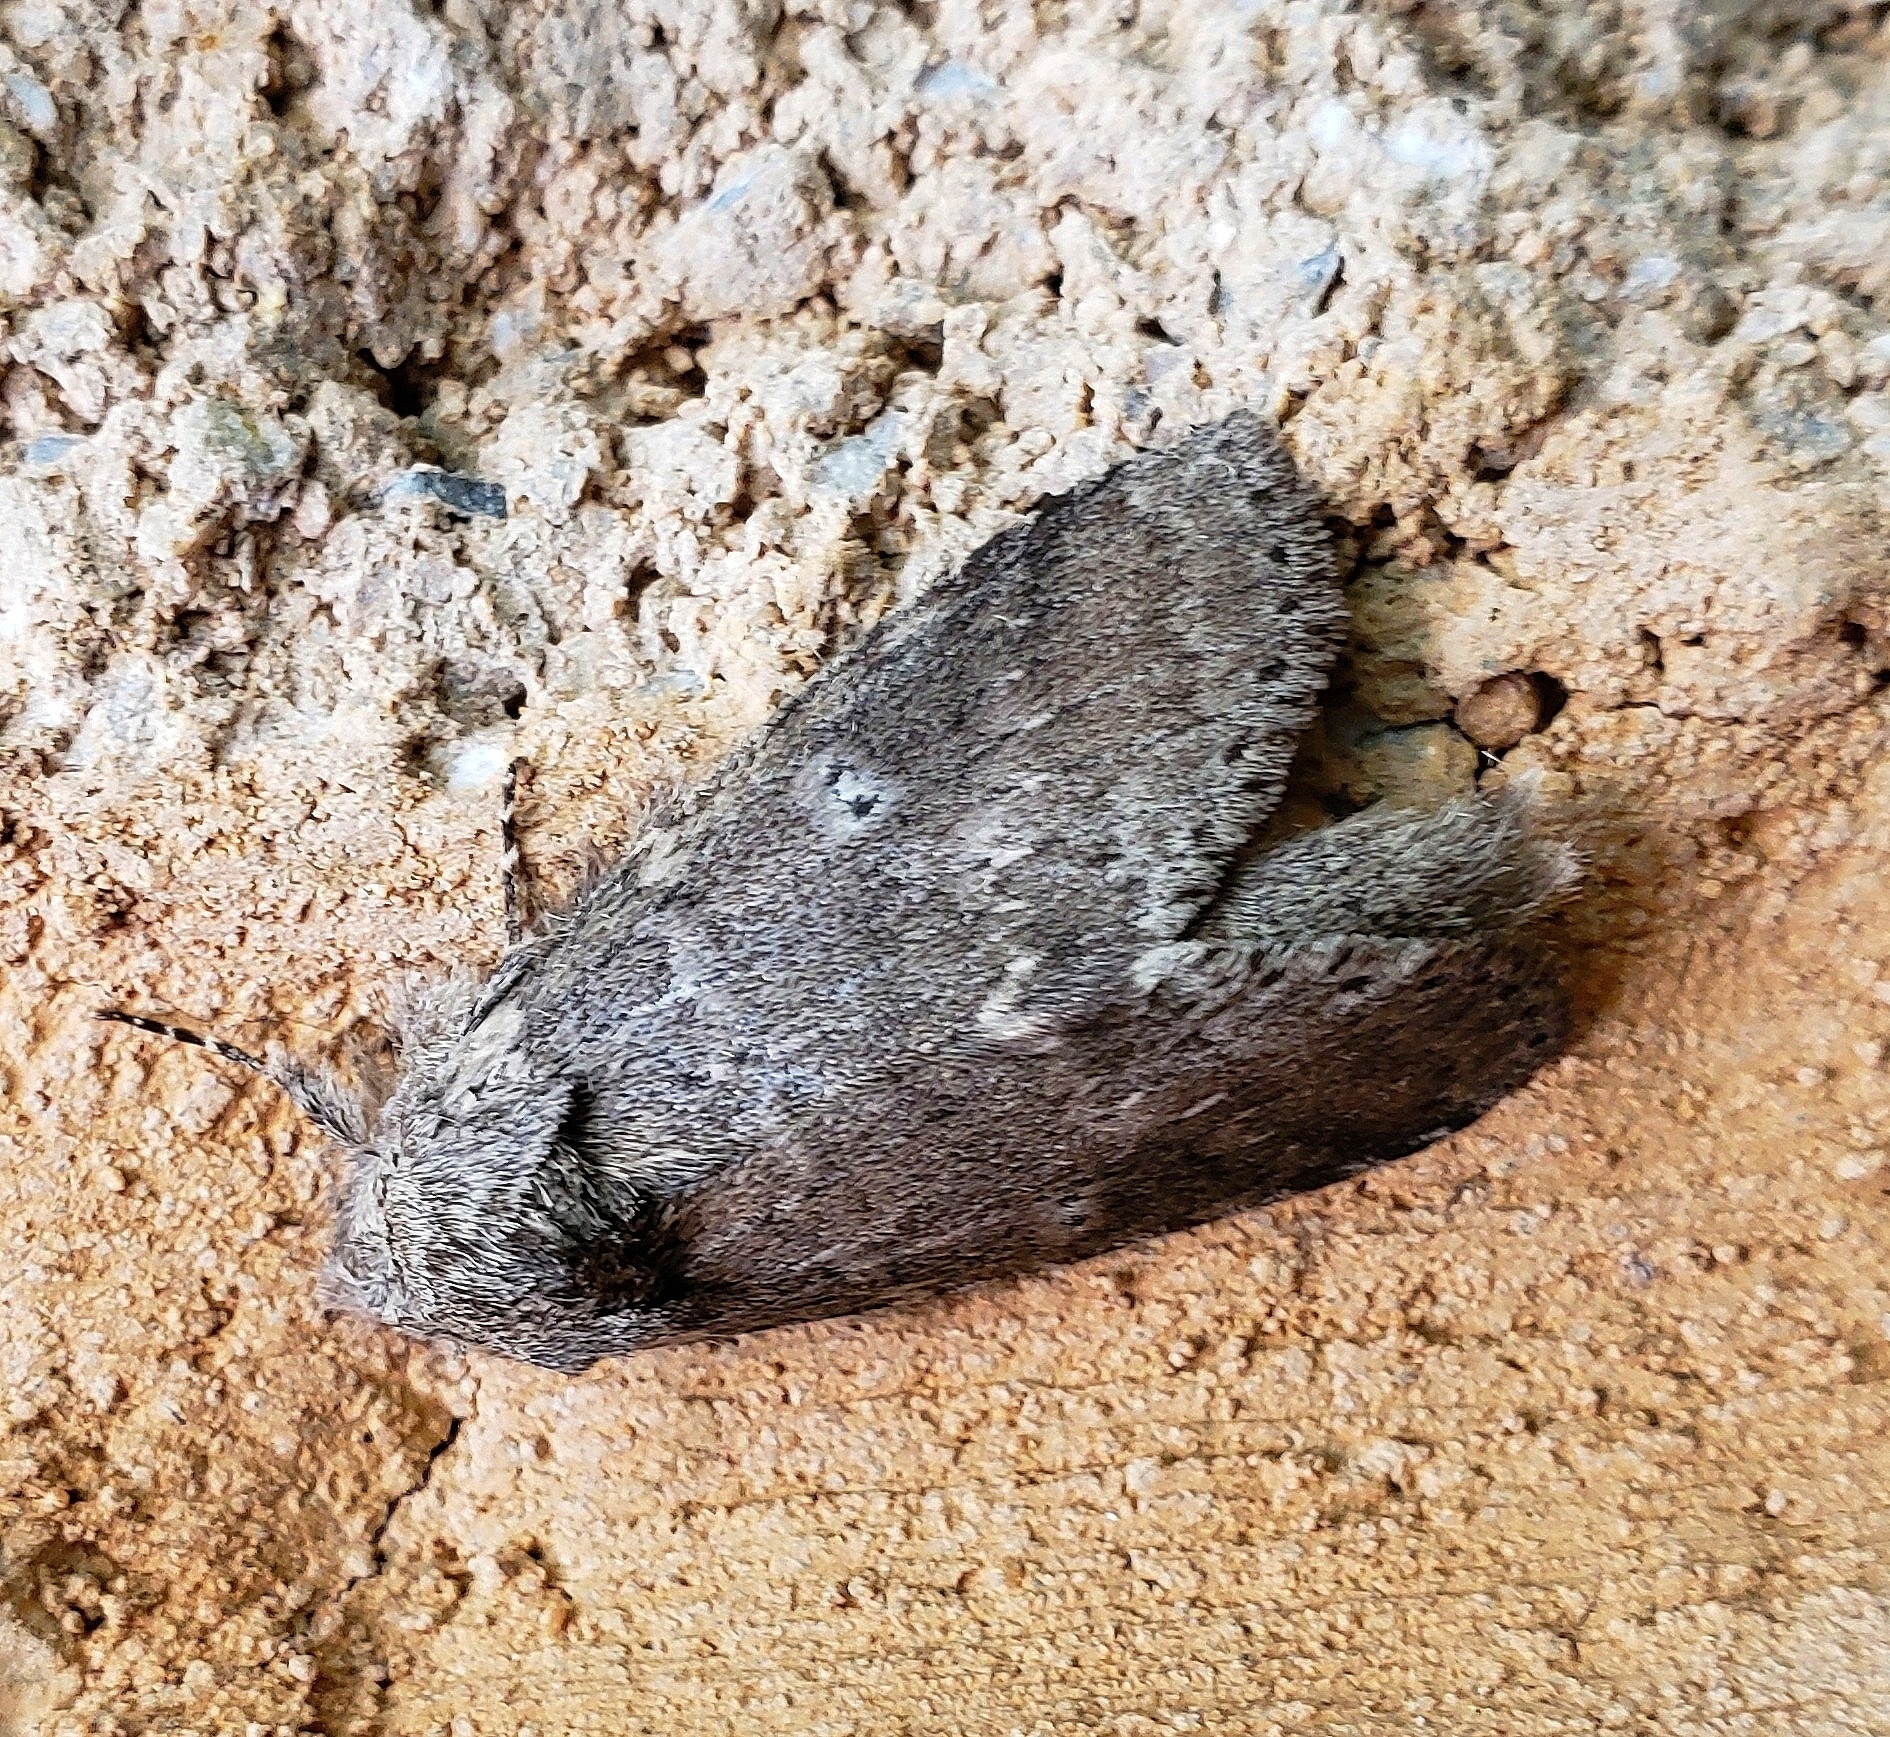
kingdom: Animalia
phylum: Arthropoda
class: Insecta
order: Lepidoptera
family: Notodontidae
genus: Lochmaeus
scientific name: Lochmaeus manteo
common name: Variable oakleaf caterpillar moth
